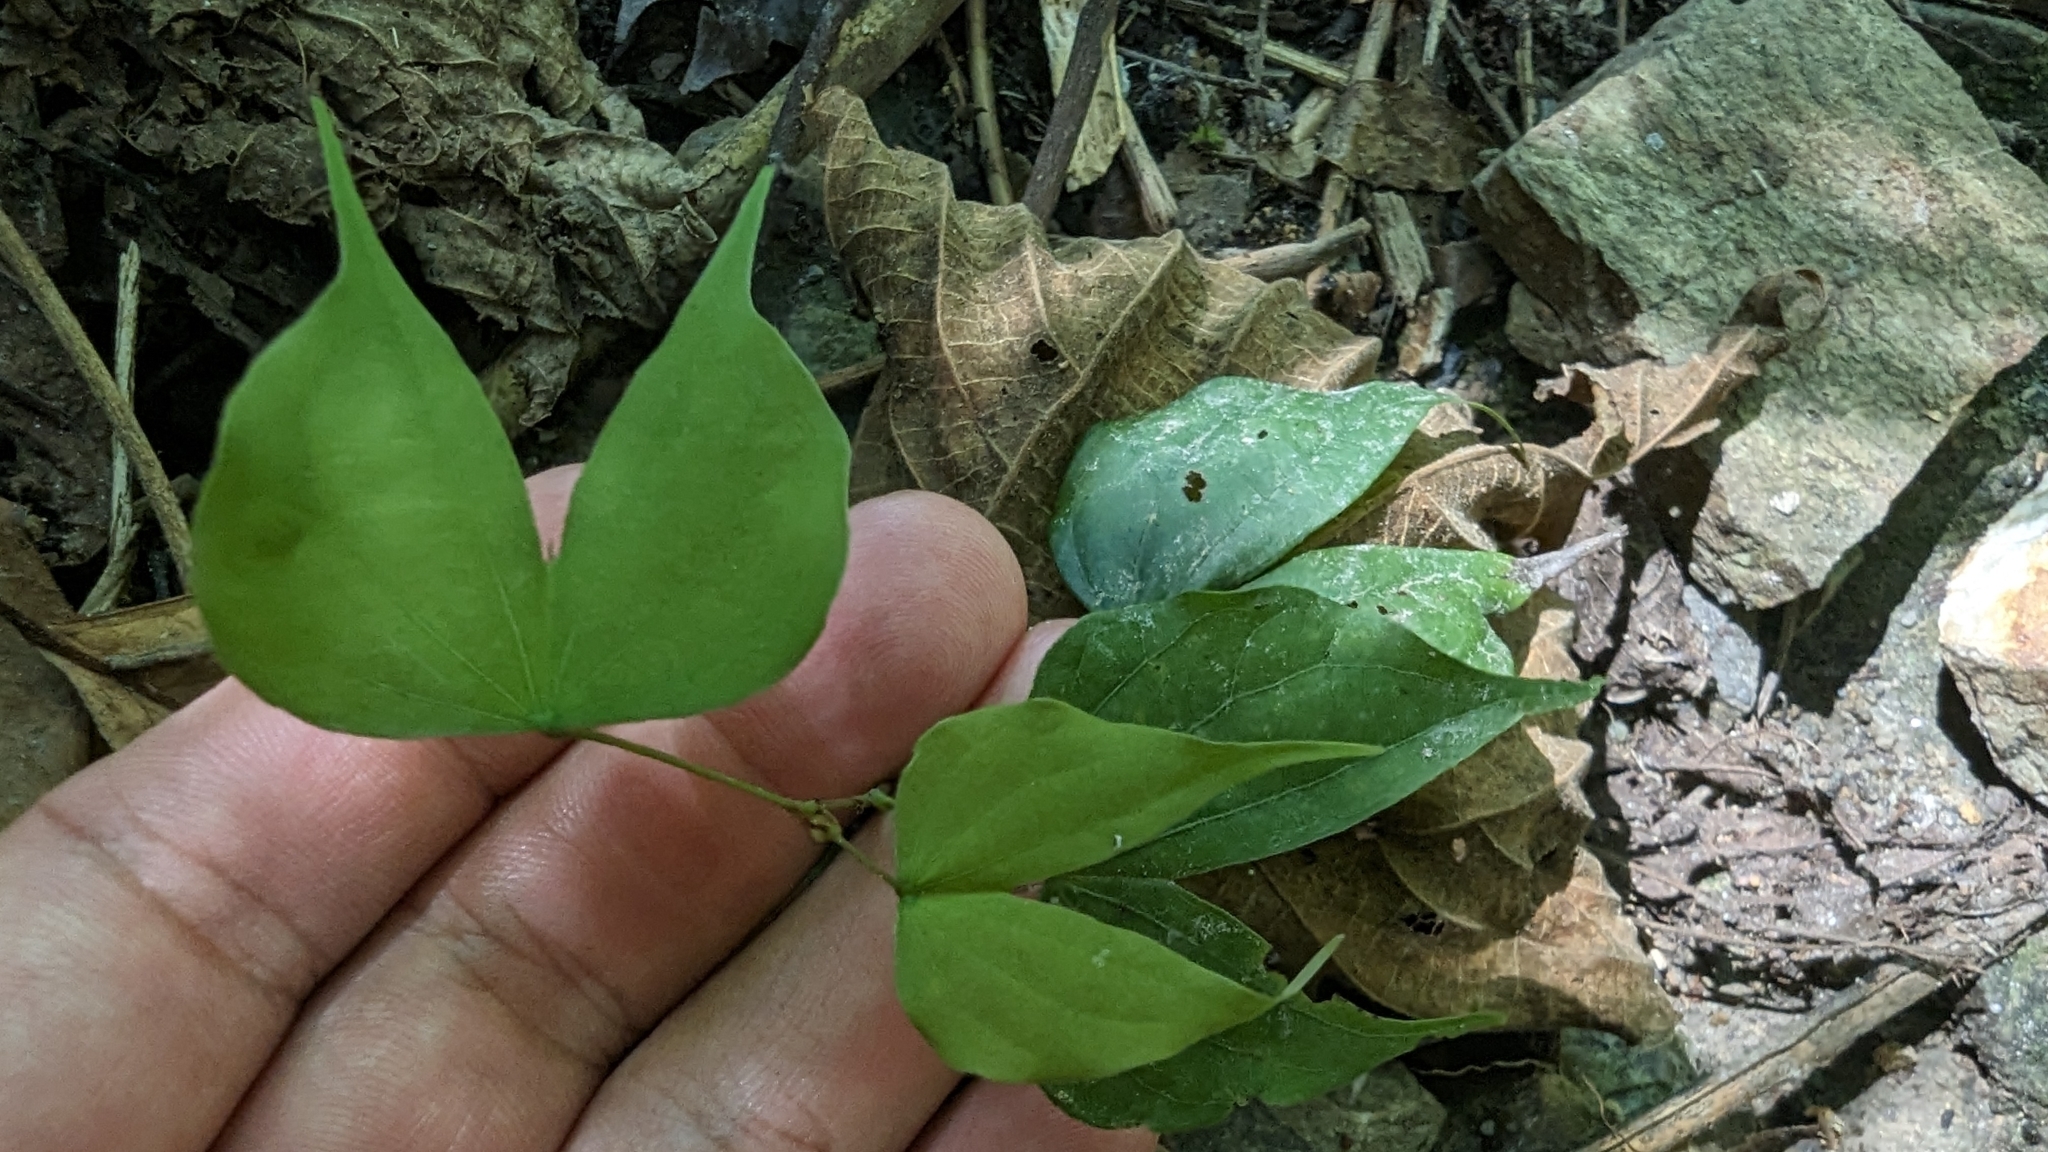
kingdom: Plantae
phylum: Tracheophyta
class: Magnoliopsida
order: Fabales
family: Fabaceae
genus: Phanera
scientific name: Phanera championii
